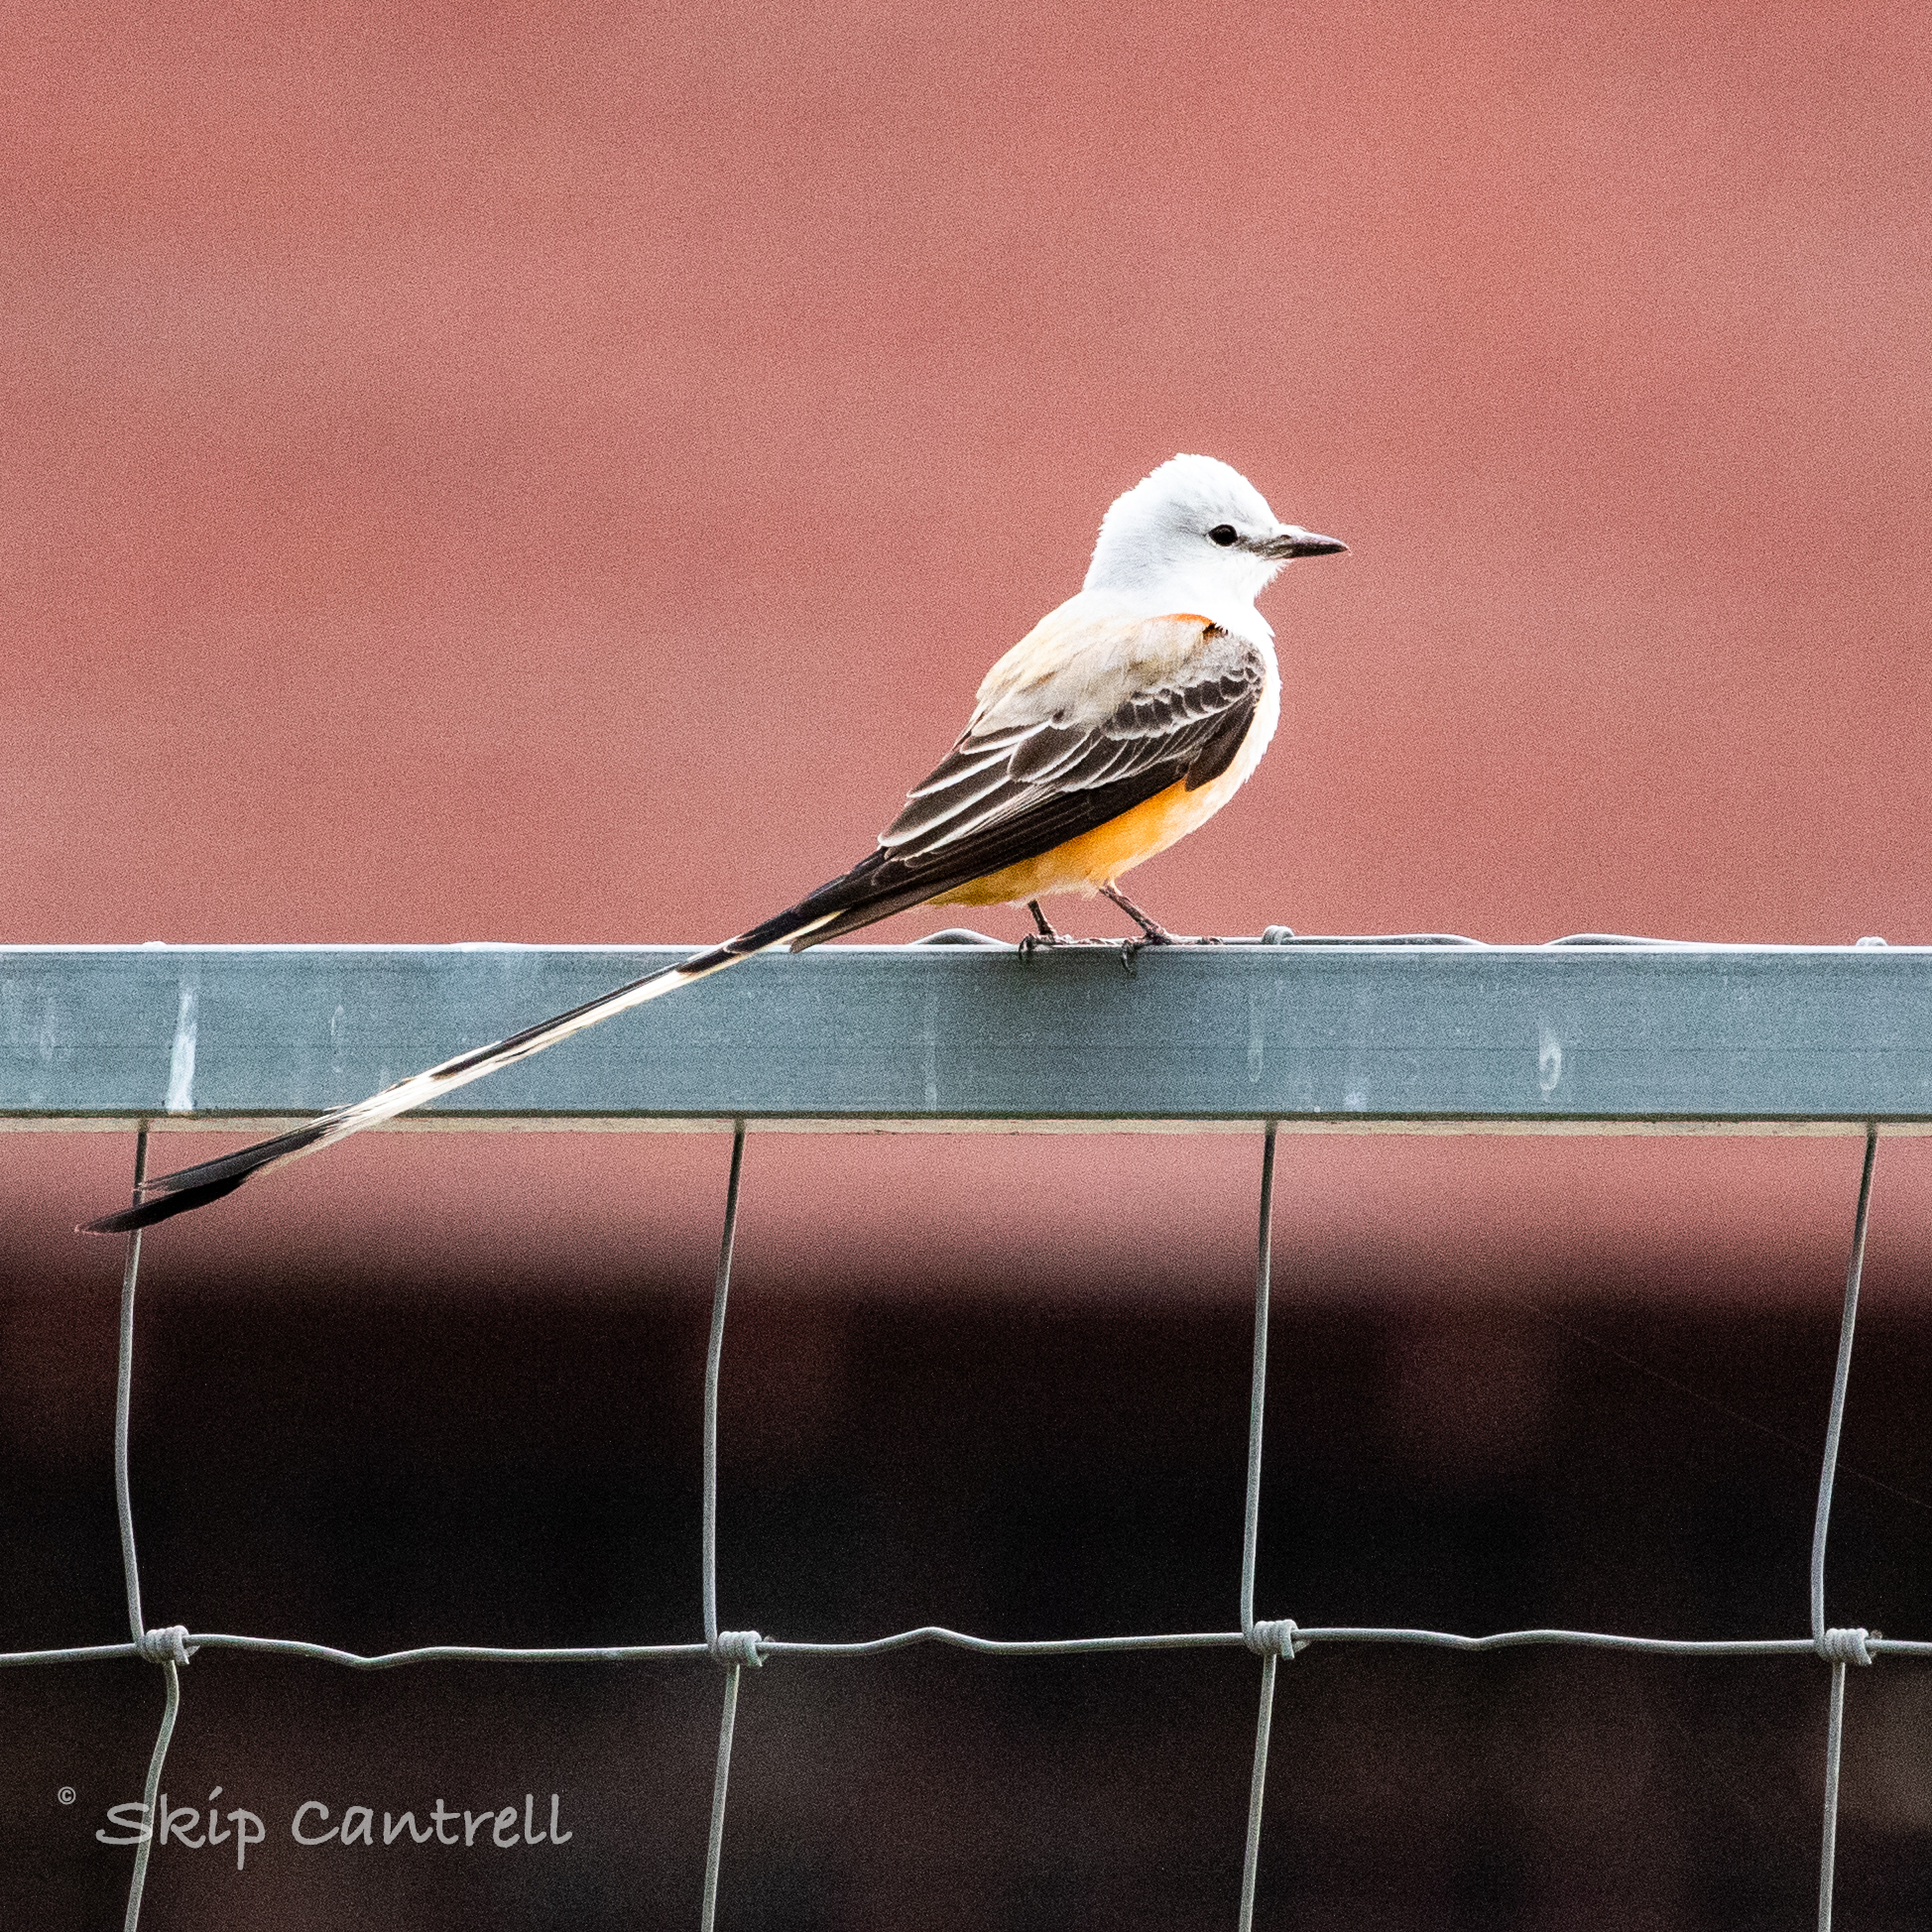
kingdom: Animalia
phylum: Chordata
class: Aves
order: Passeriformes
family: Tyrannidae
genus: Tyrannus
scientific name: Tyrannus forficatus
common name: Scissor-tailed flycatcher
